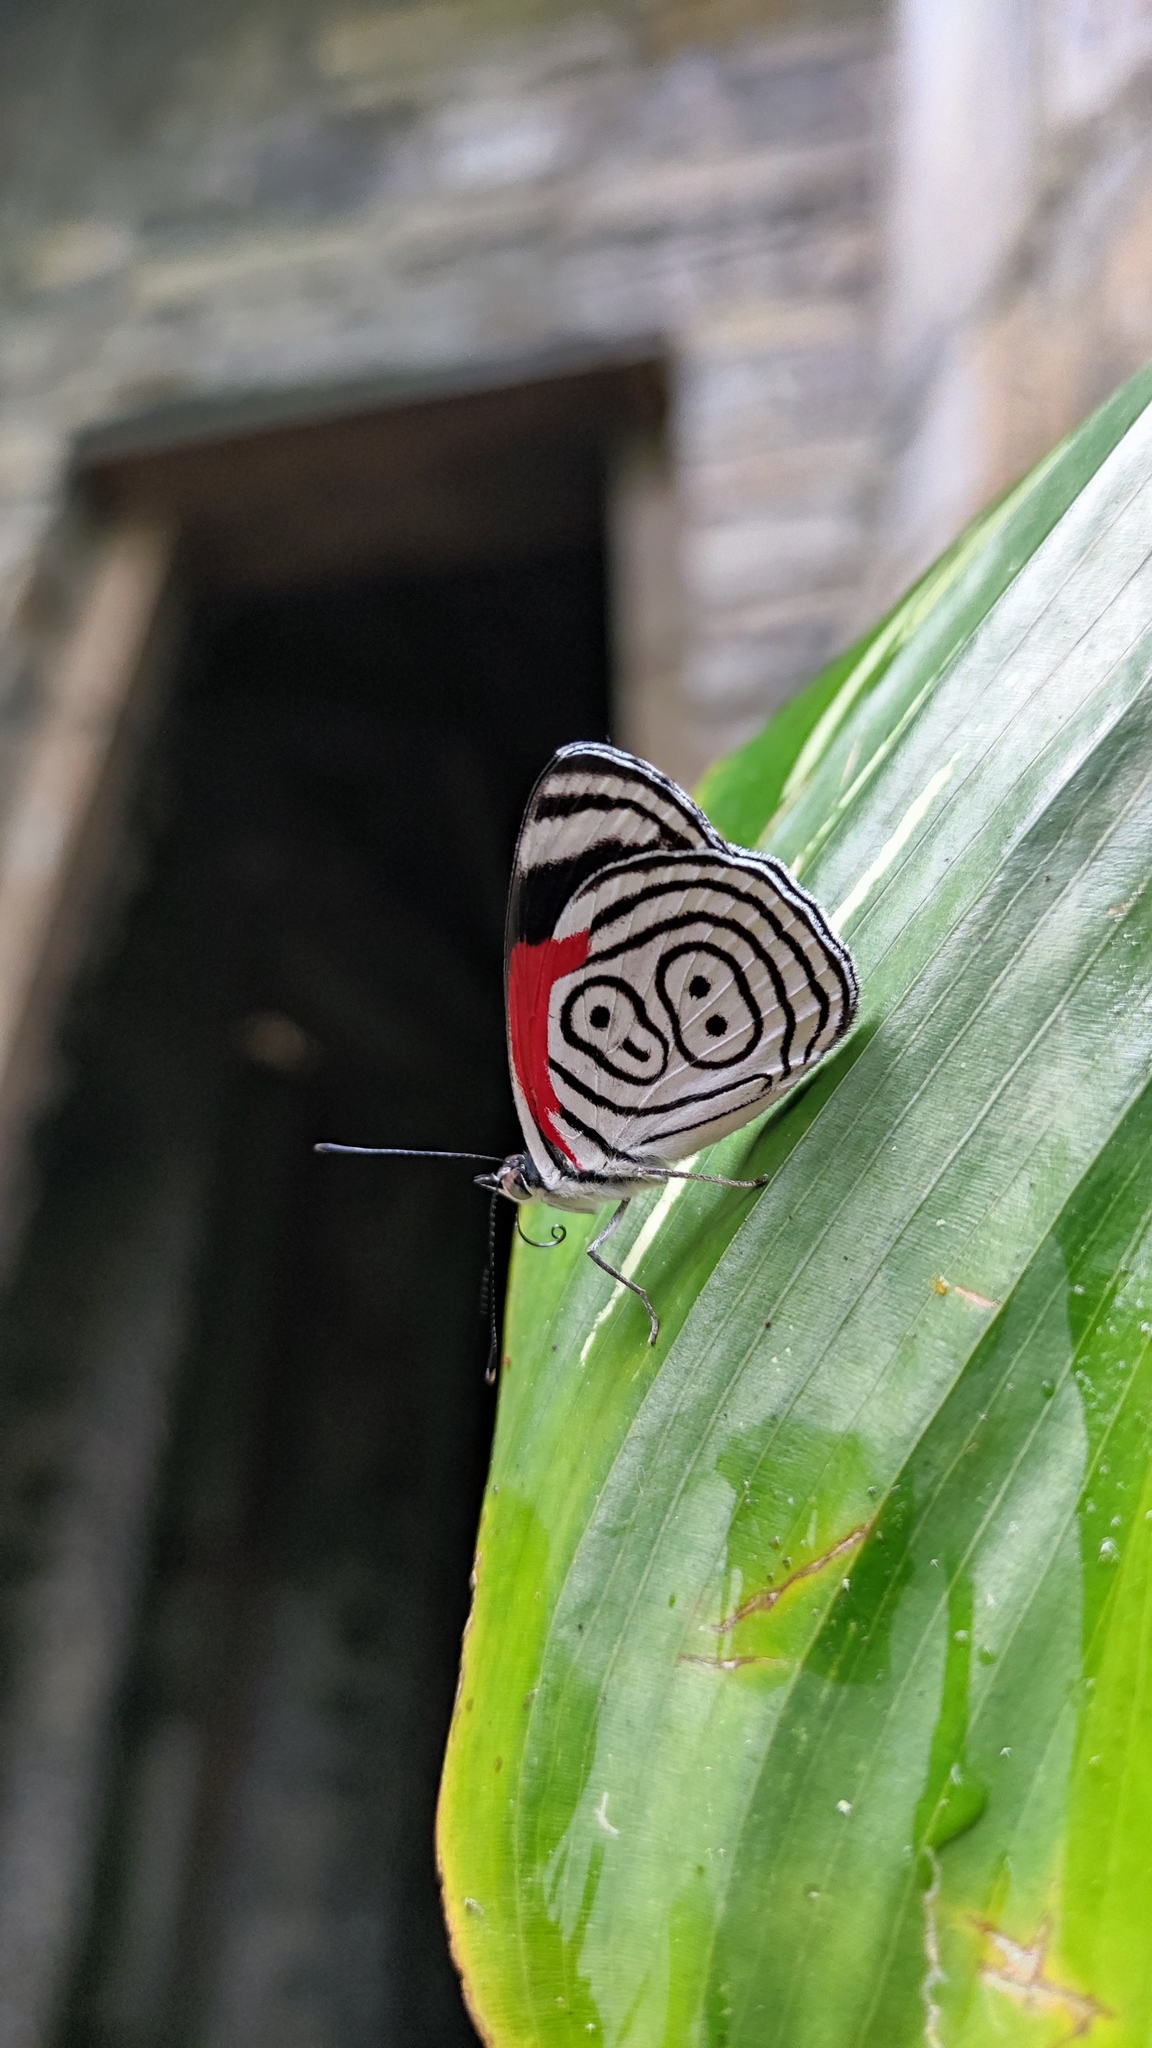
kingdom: Animalia
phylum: Arthropoda
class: Insecta
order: Lepidoptera
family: Nymphalidae
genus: Diaethria
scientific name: Diaethria anna
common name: Anna’s eighty-eight
